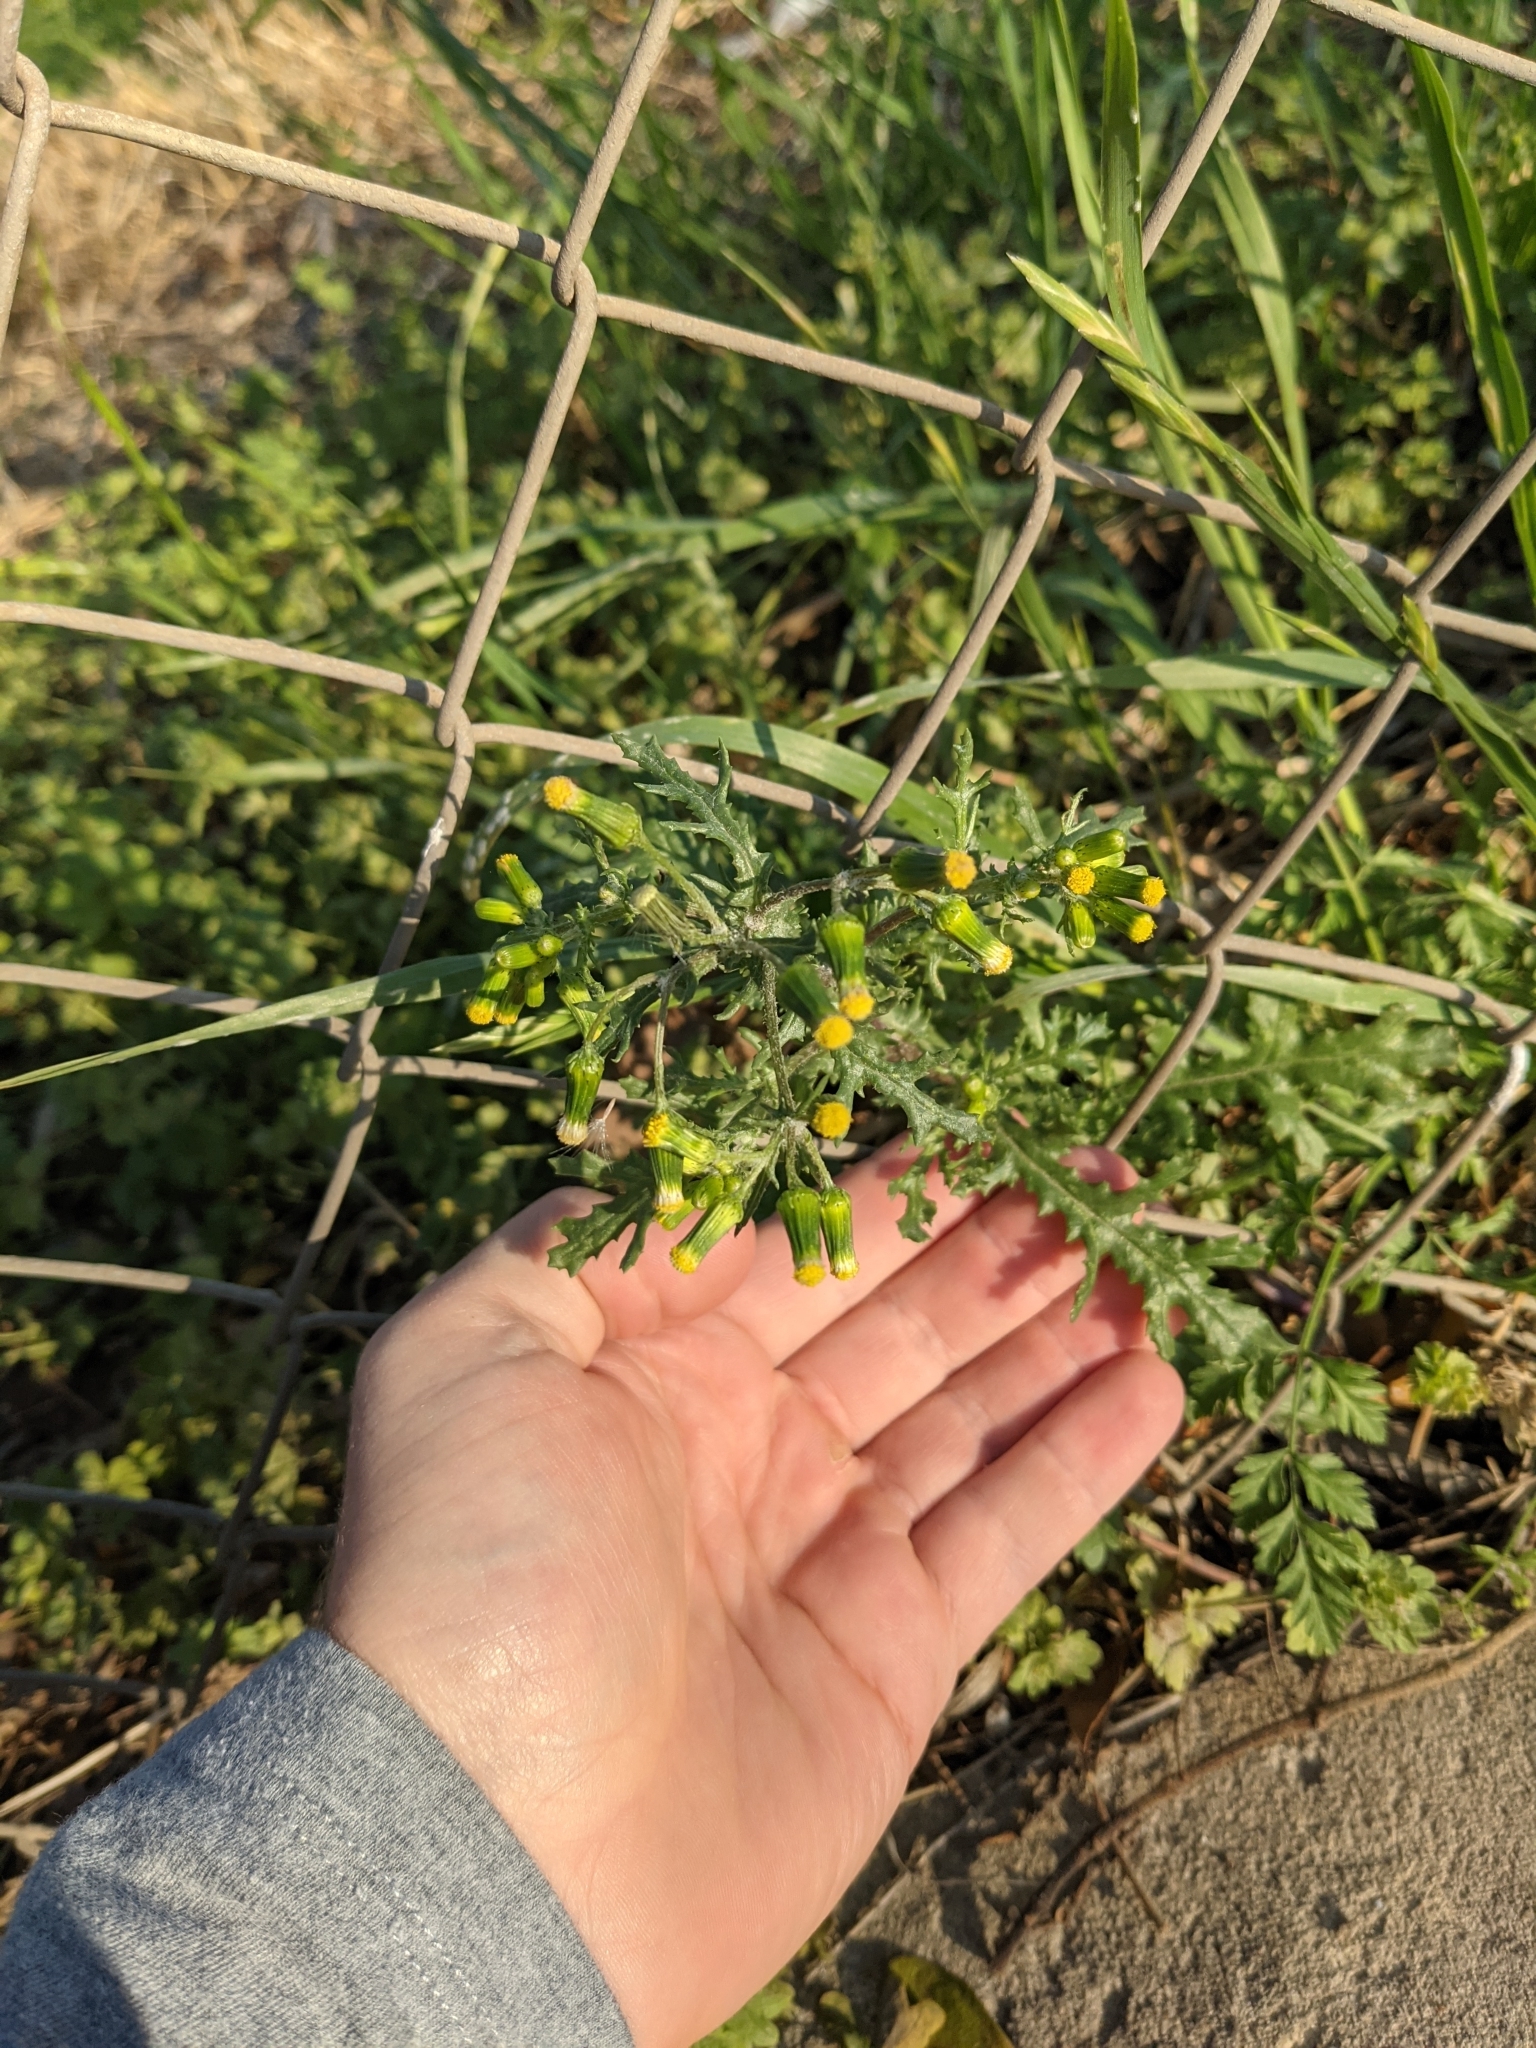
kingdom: Plantae
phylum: Tracheophyta
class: Magnoliopsida
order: Asterales
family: Asteraceae
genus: Senecio
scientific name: Senecio vulgaris
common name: Old-man-in-the-spring
